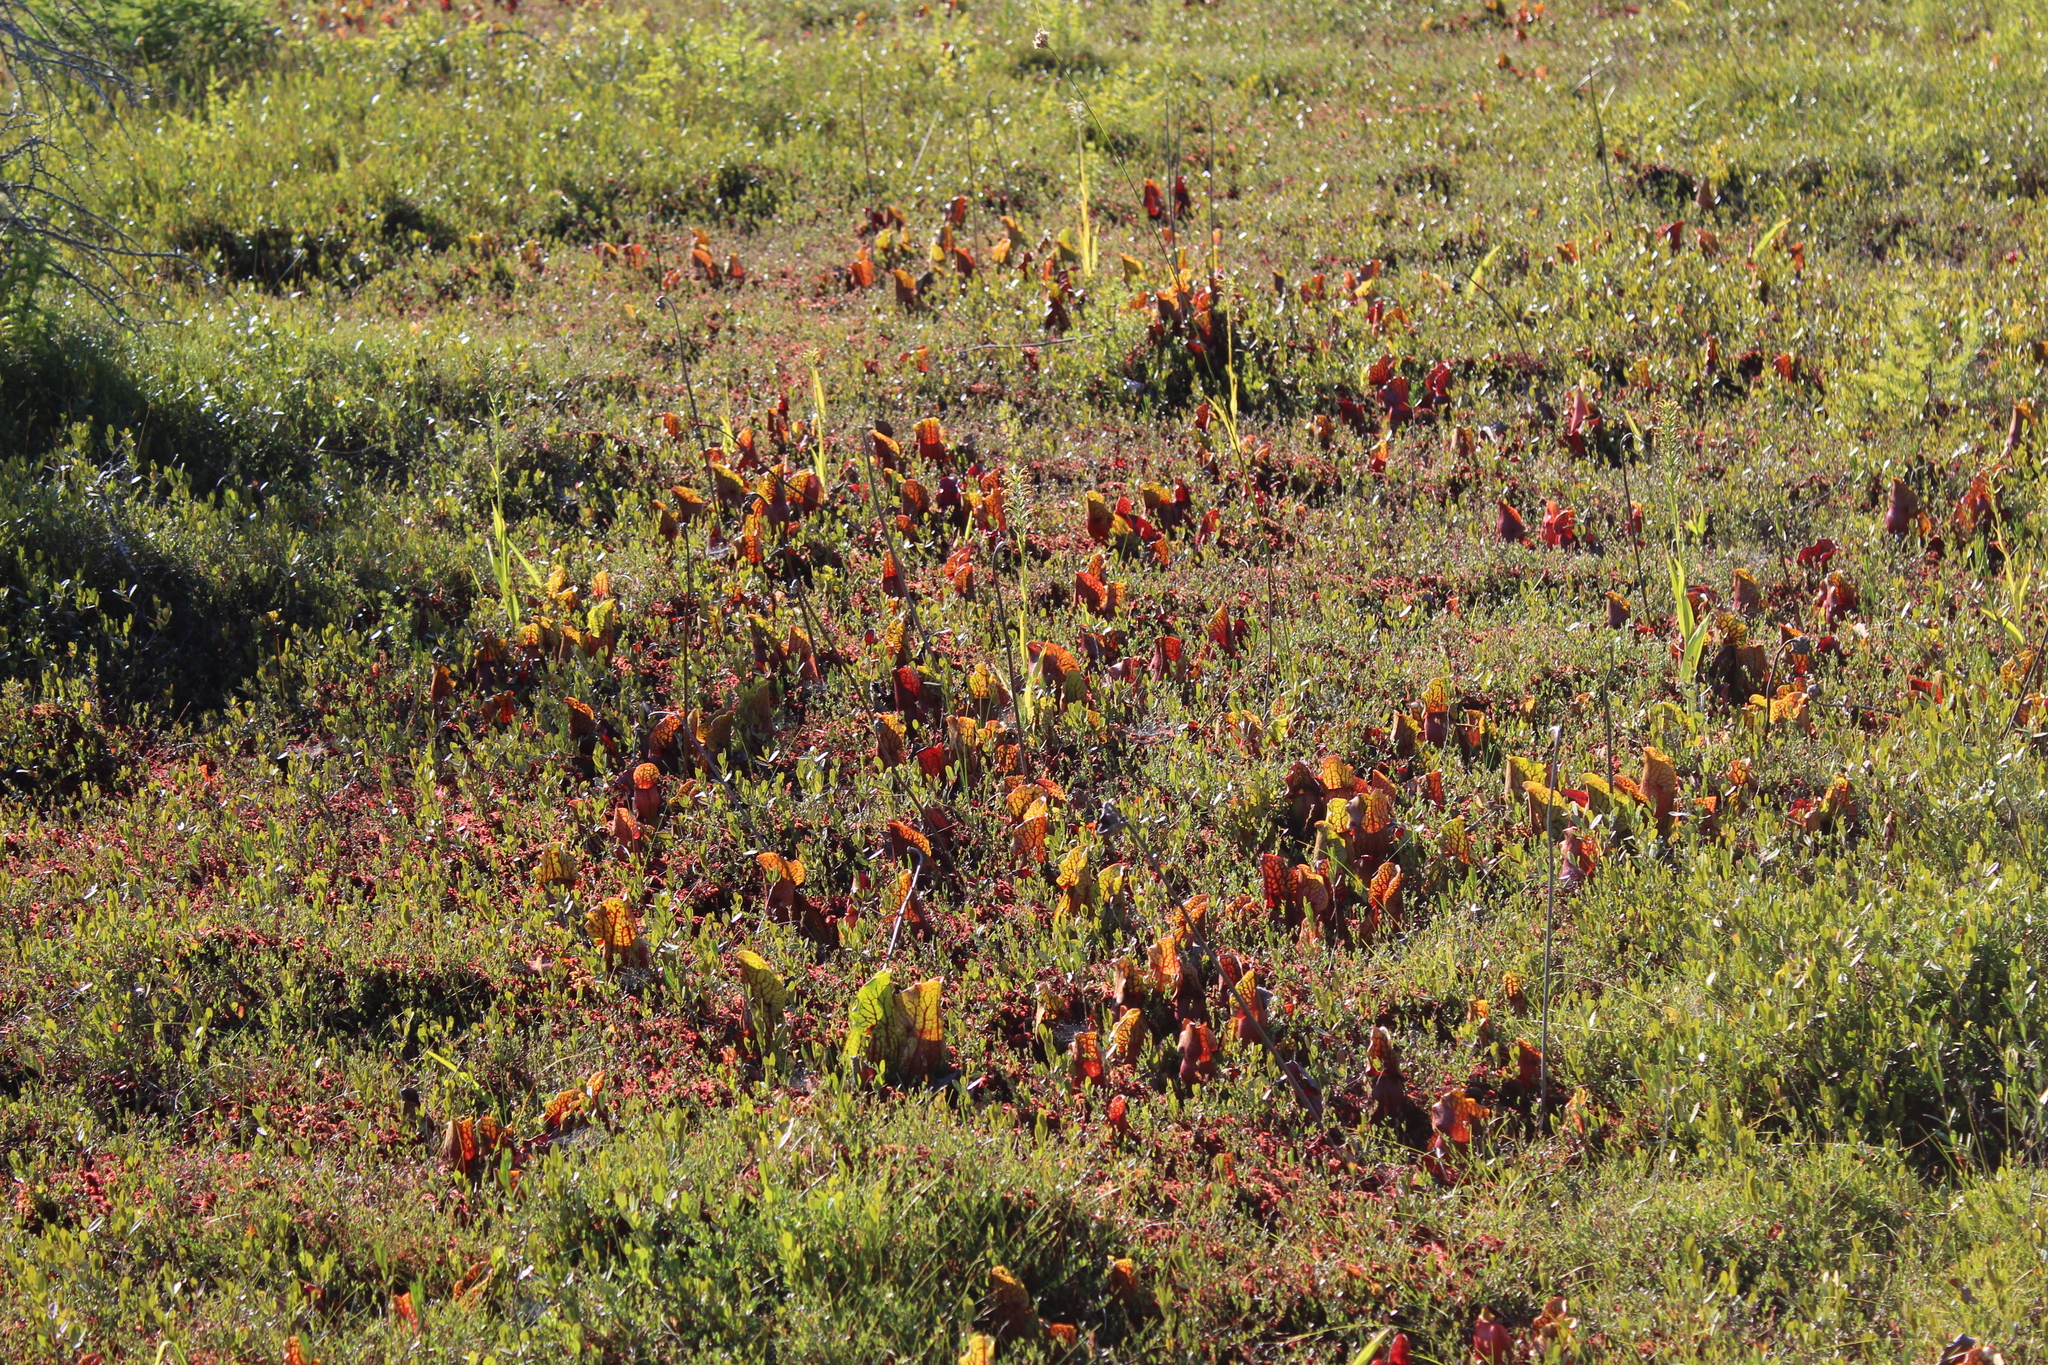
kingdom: Plantae
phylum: Tracheophyta
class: Magnoliopsida
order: Ericales
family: Sarraceniaceae
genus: Sarracenia
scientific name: Sarracenia purpurea
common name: Pitcherplant
